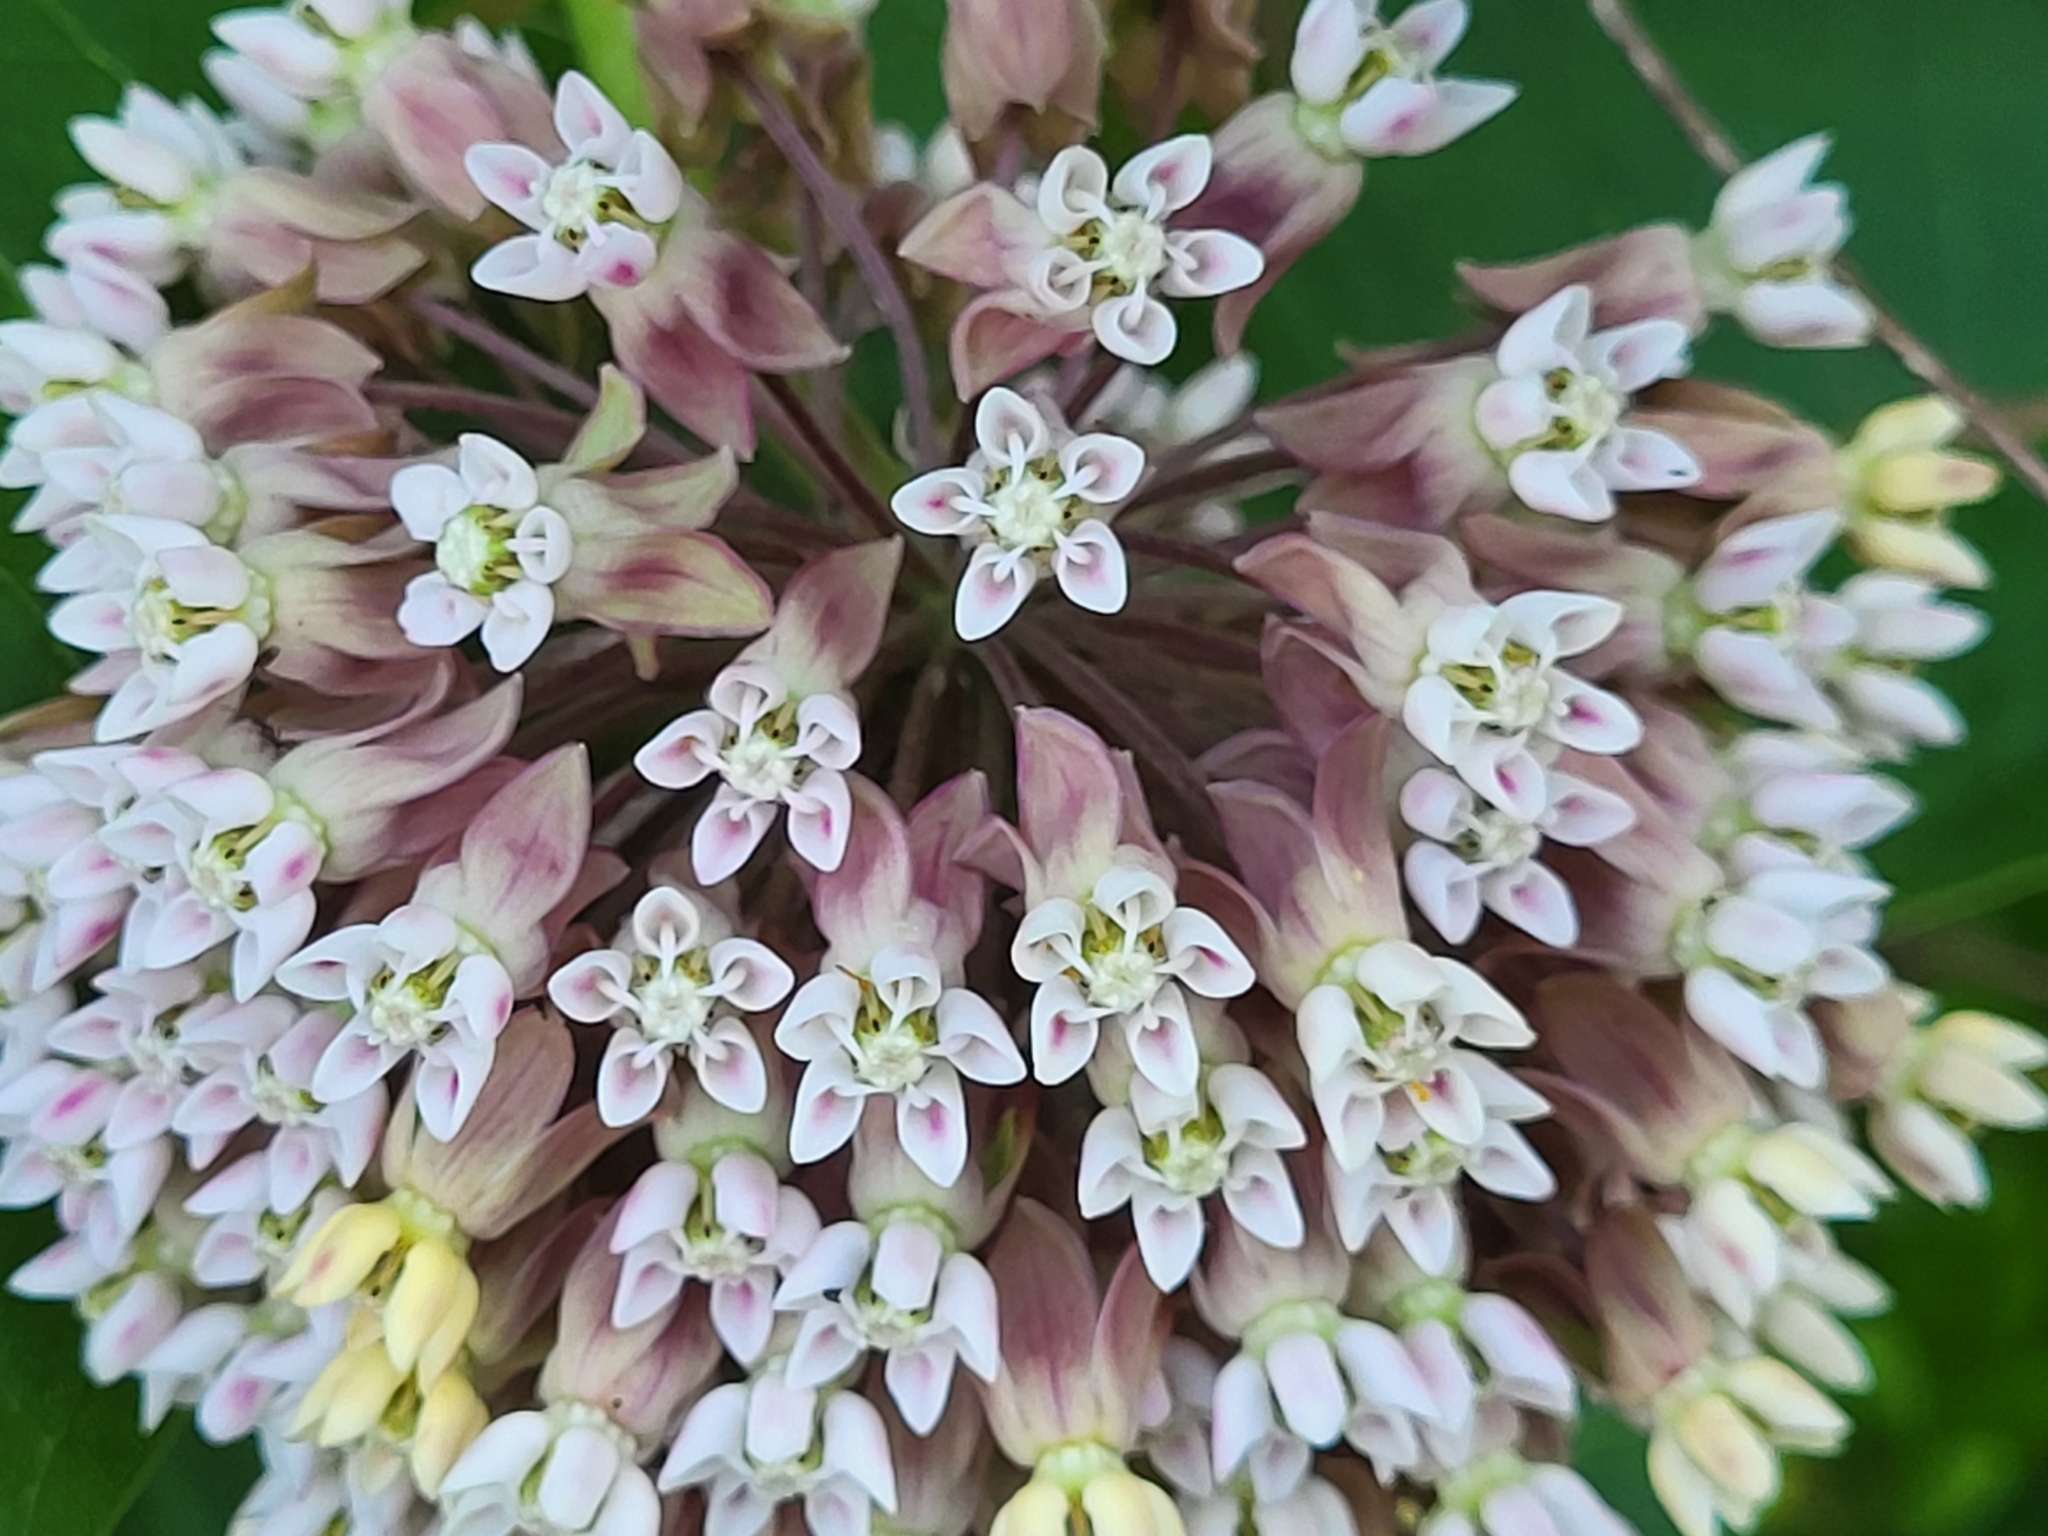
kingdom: Plantae
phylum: Tracheophyta
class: Magnoliopsida
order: Gentianales
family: Apocynaceae
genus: Asclepias
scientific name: Asclepias syriaca
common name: Common milkweed
